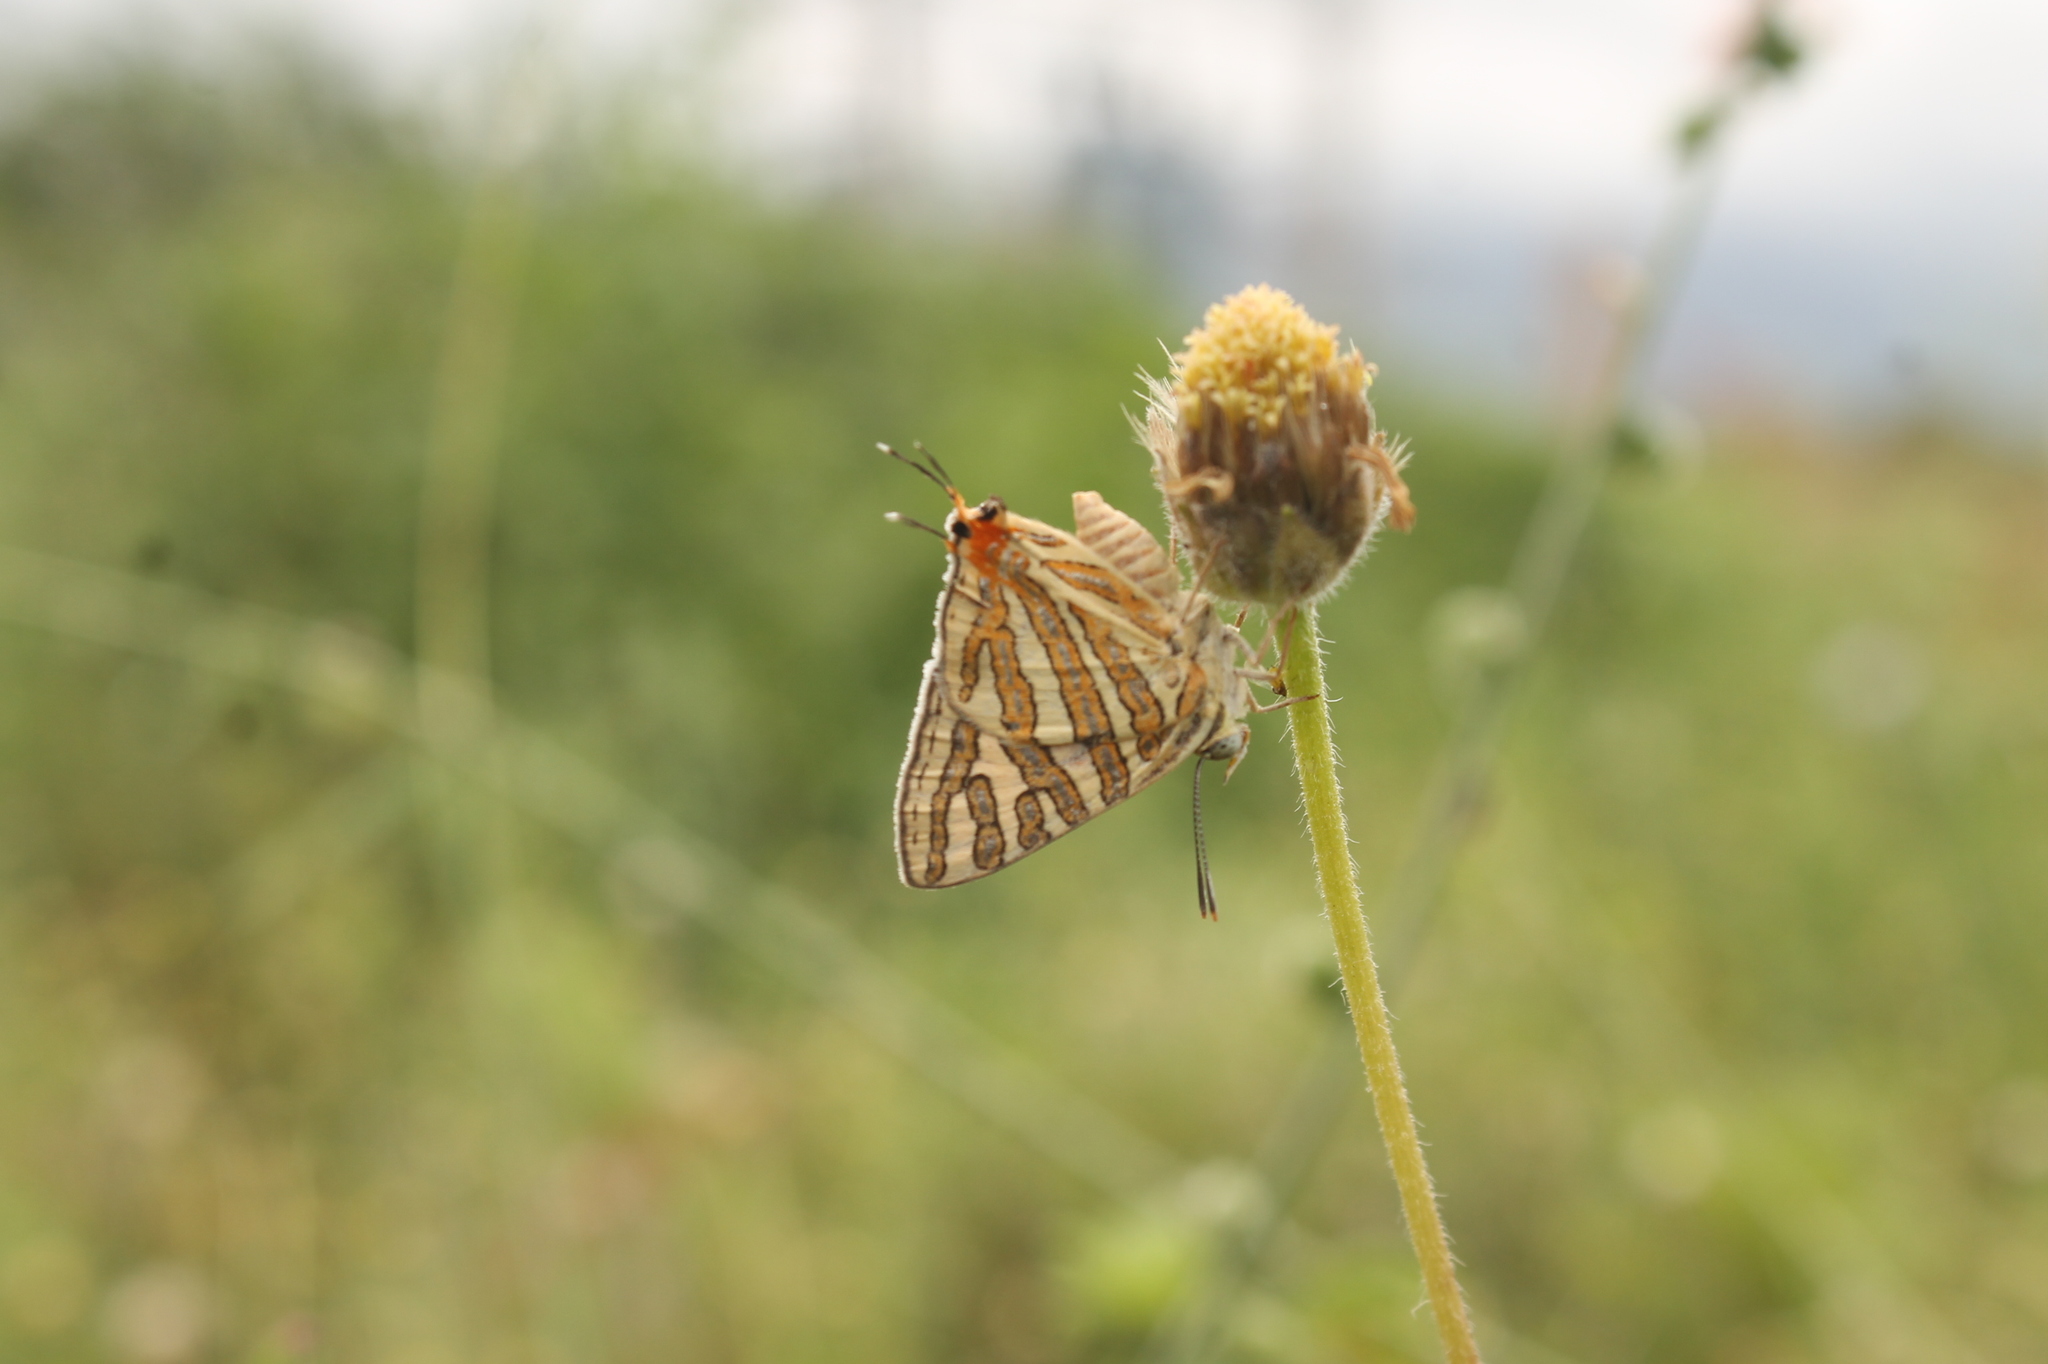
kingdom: Animalia
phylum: Arthropoda
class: Insecta
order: Lepidoptera
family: Lycaenidae
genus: Cigaritis
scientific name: Cigaritis vulcanus
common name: Common silverline
